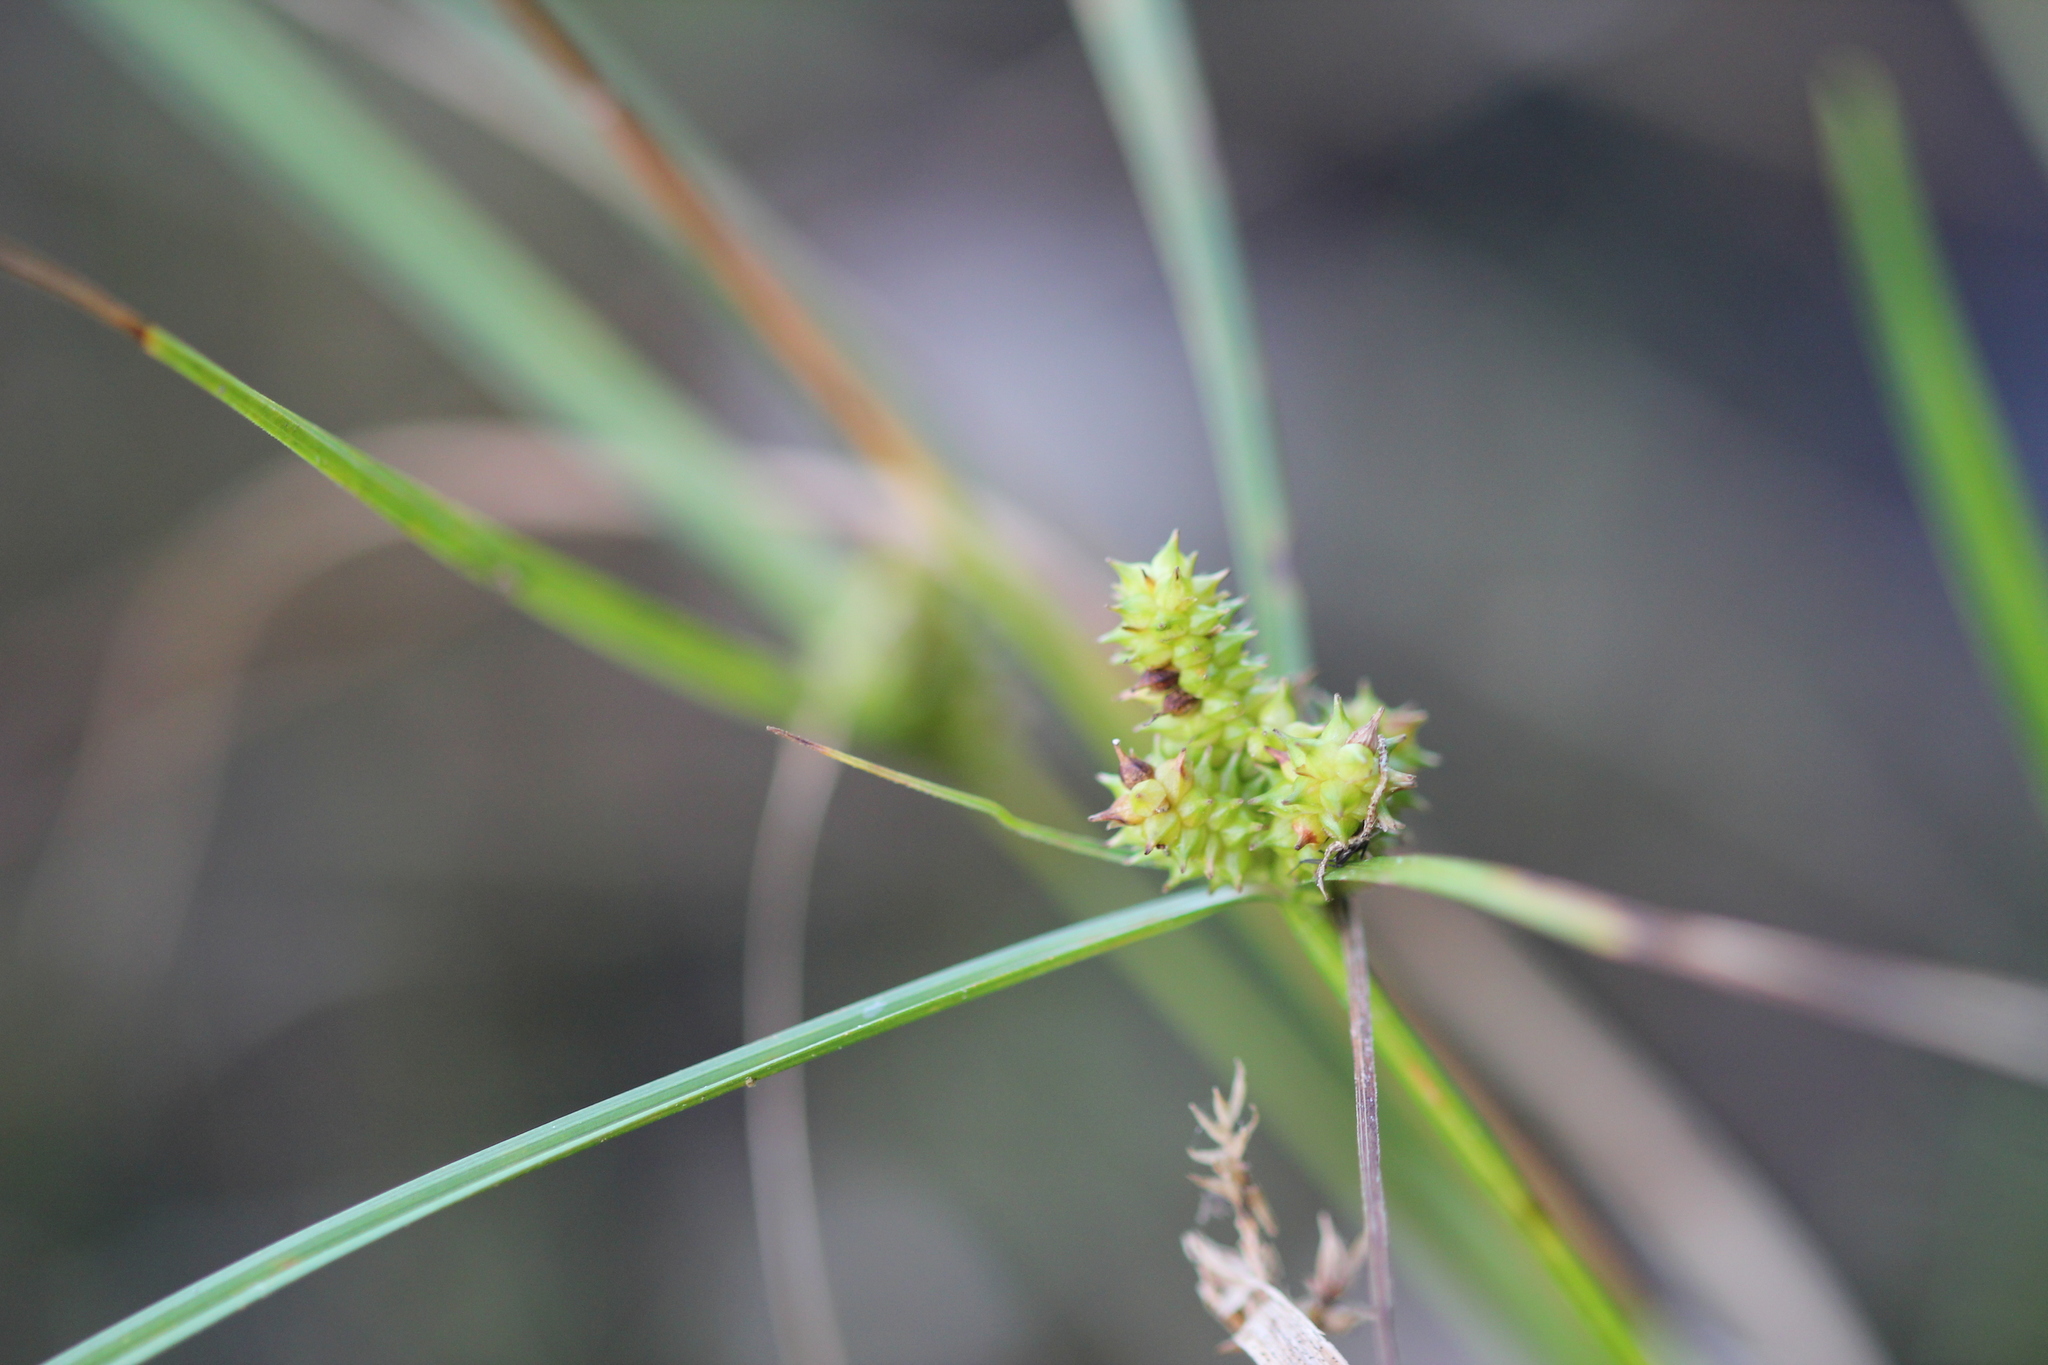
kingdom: Plantae
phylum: Tracheophyta
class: Liliopsida
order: Poales
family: Cyperaceae
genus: Carex
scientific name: Carex
